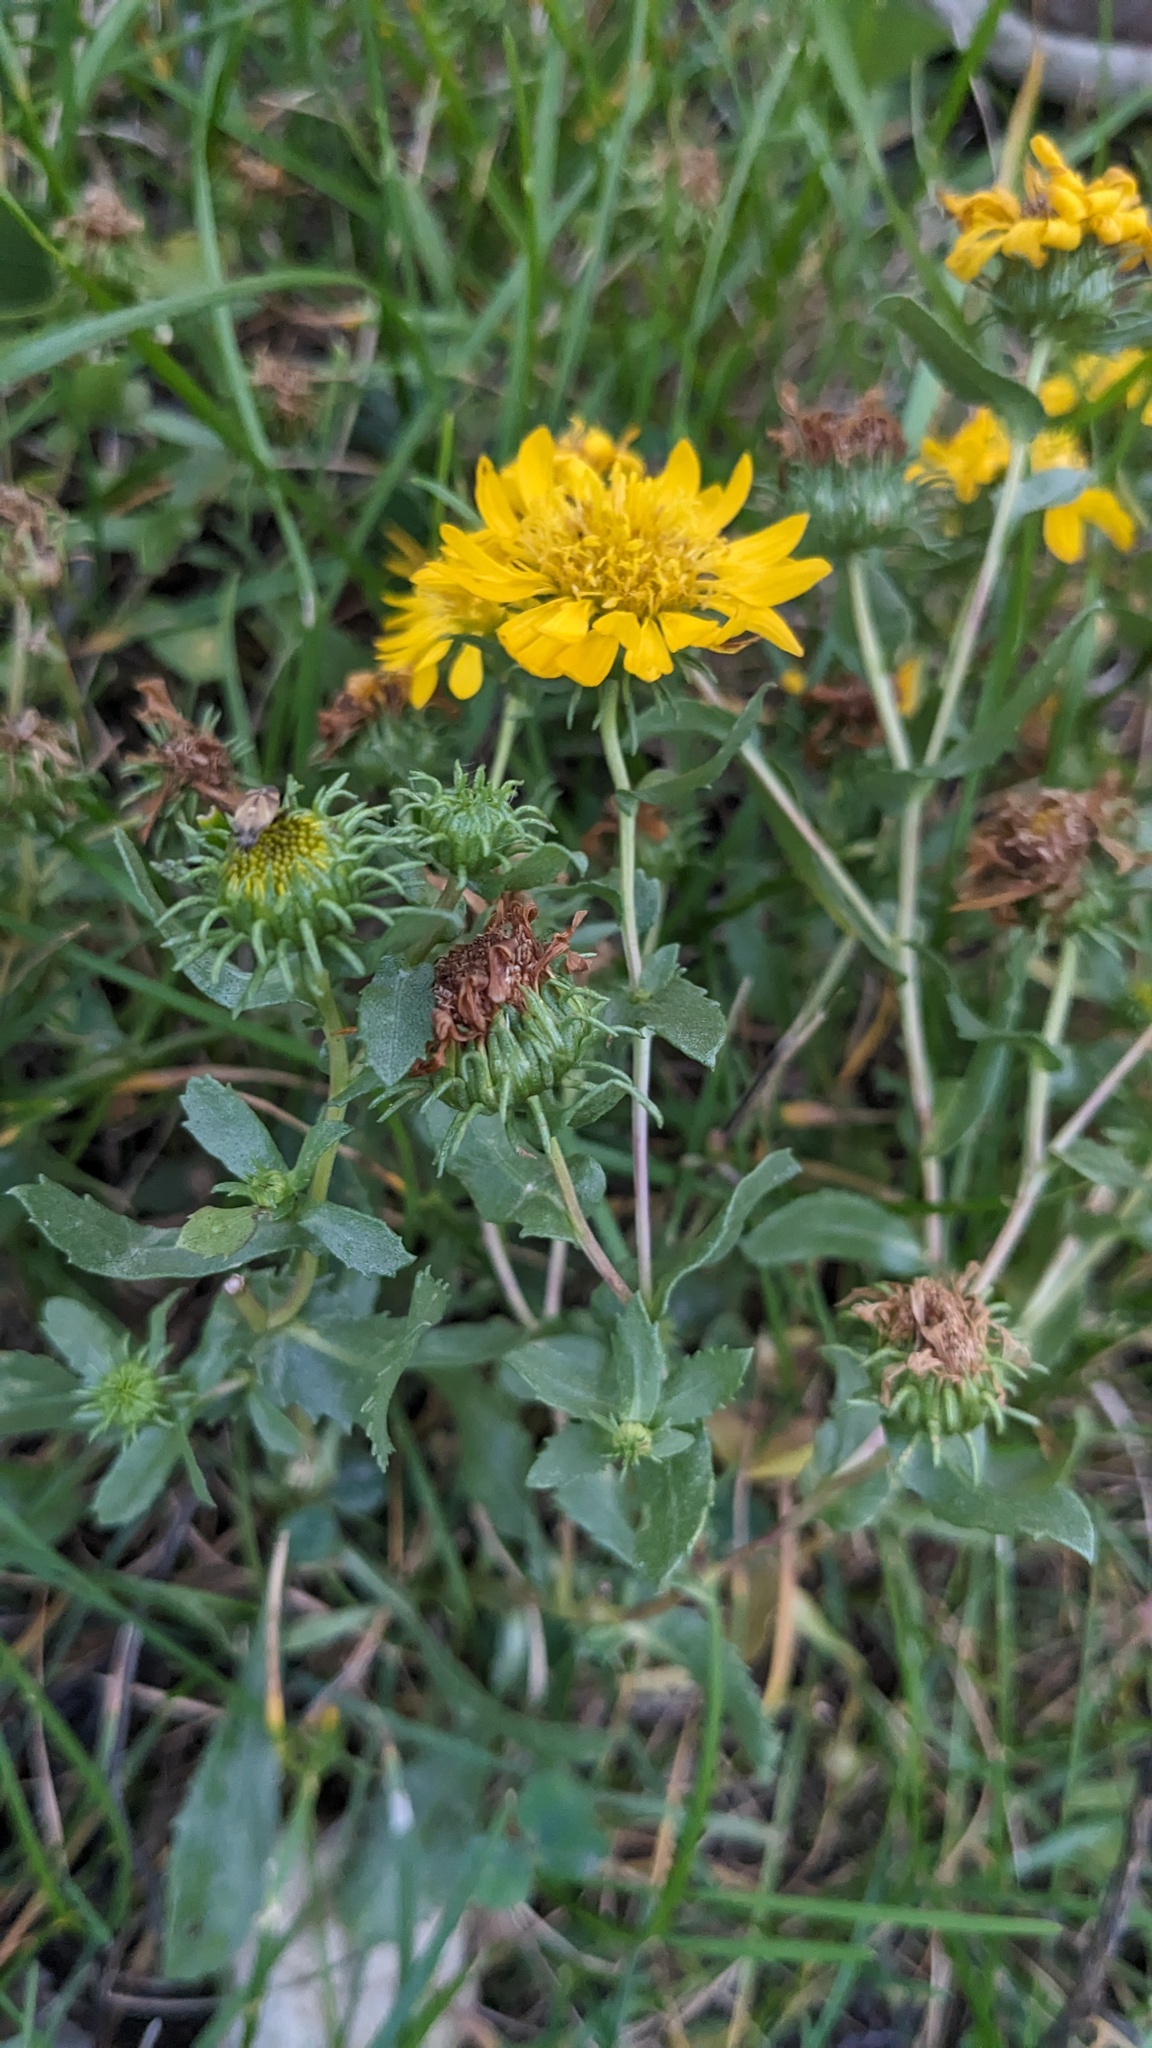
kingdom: Plantae
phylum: Tracheophyta
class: Magnoliopsida
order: Asterales
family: Asteraceae
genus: Grindelia
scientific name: Grindelia squarrosa
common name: Curly-cup gumweed
